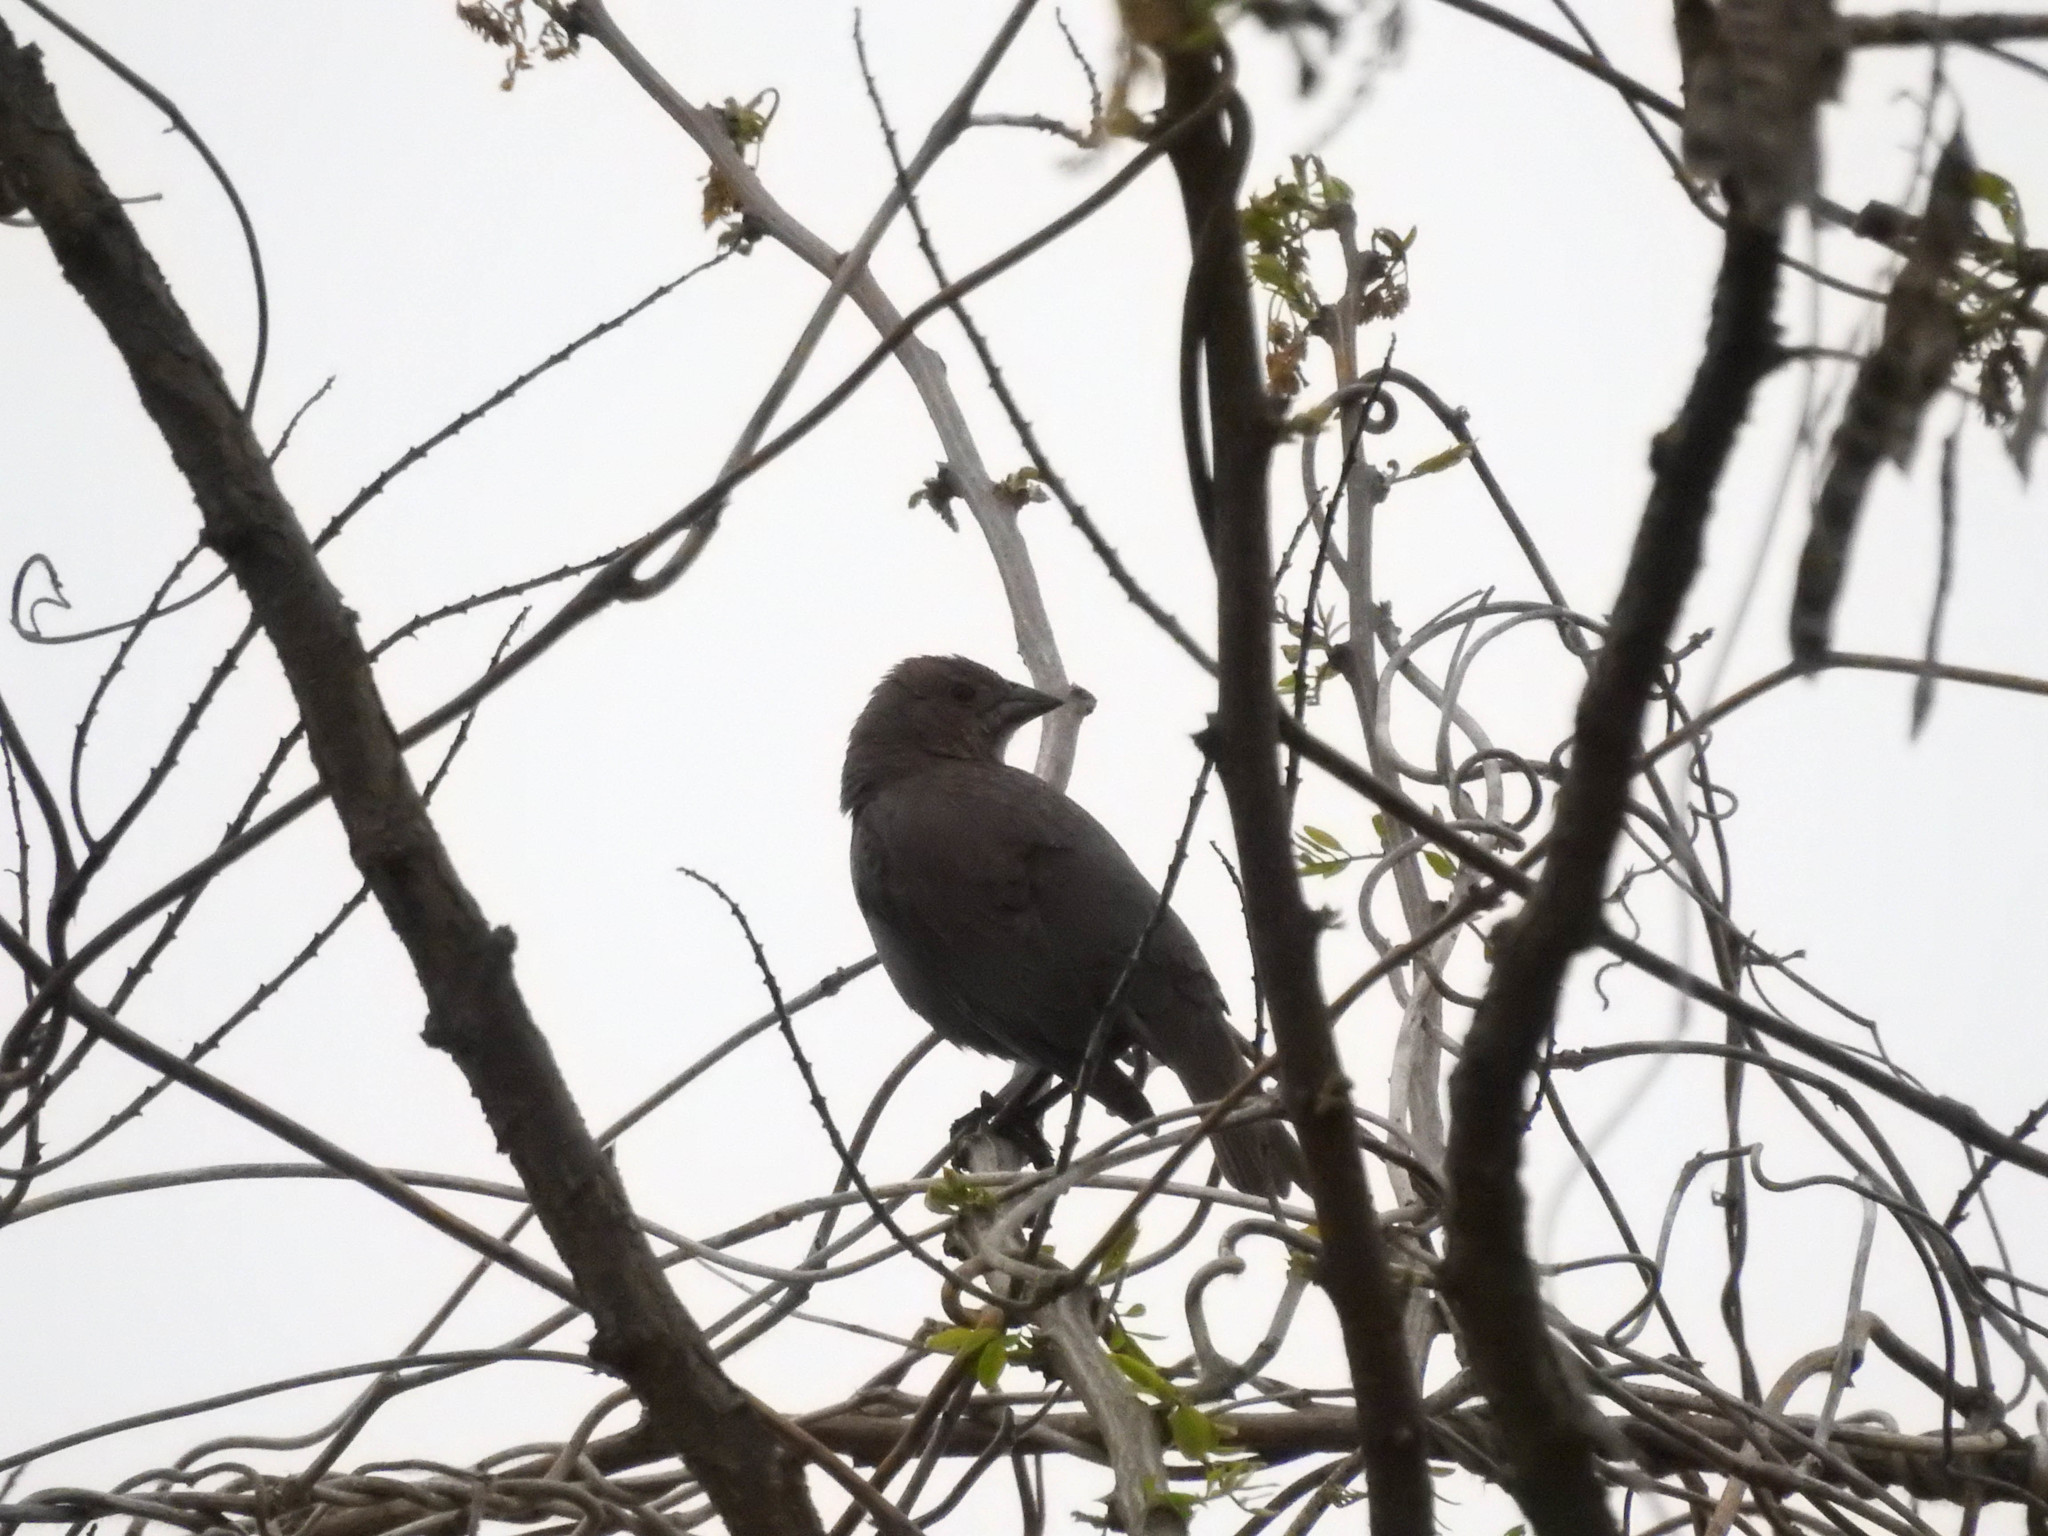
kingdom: Animalia
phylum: Chordata
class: Aves
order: Passeriformes
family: Icteridae
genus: Molothrus
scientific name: Molothrus ater
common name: Brown-headed cowbird
